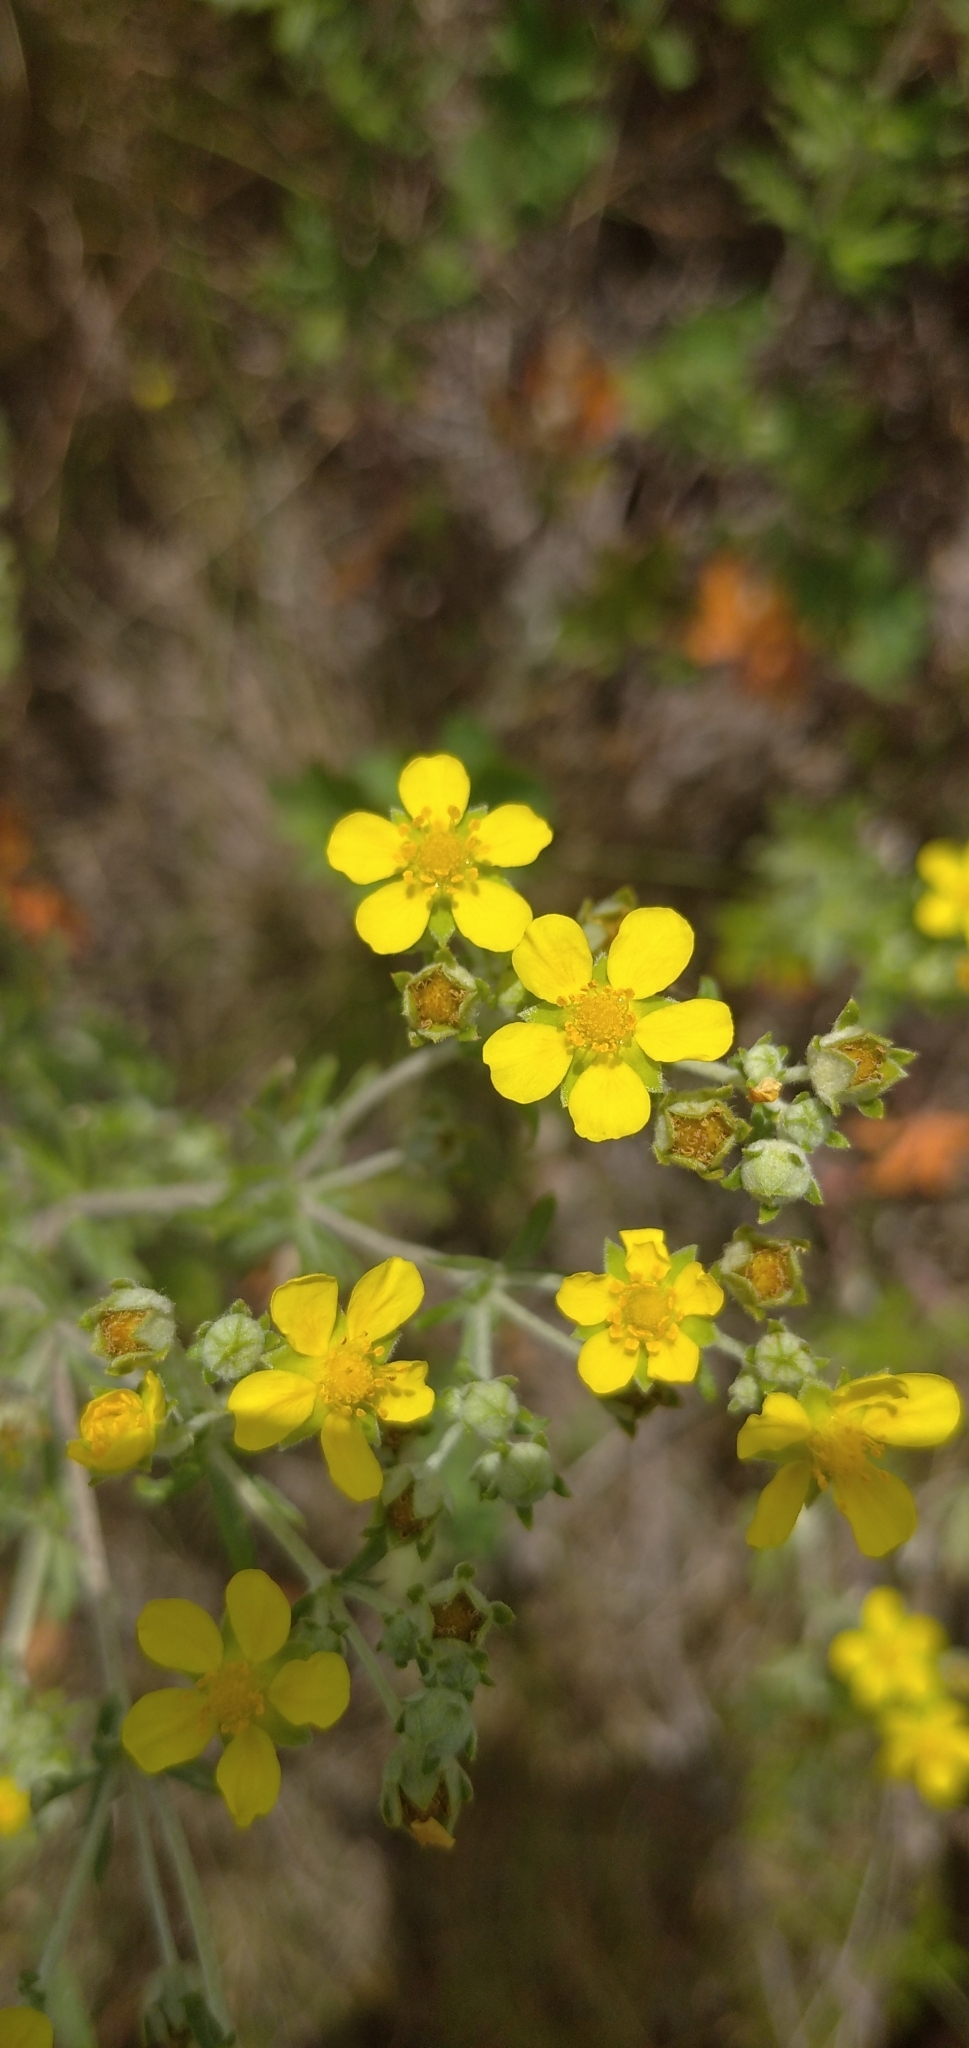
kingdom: Plantae
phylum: Tracheophyta
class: Magnoliopsida
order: Rosales
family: Rosaceae
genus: Potentilla
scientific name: Potentilla argentea
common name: Hoary cinquefoil
